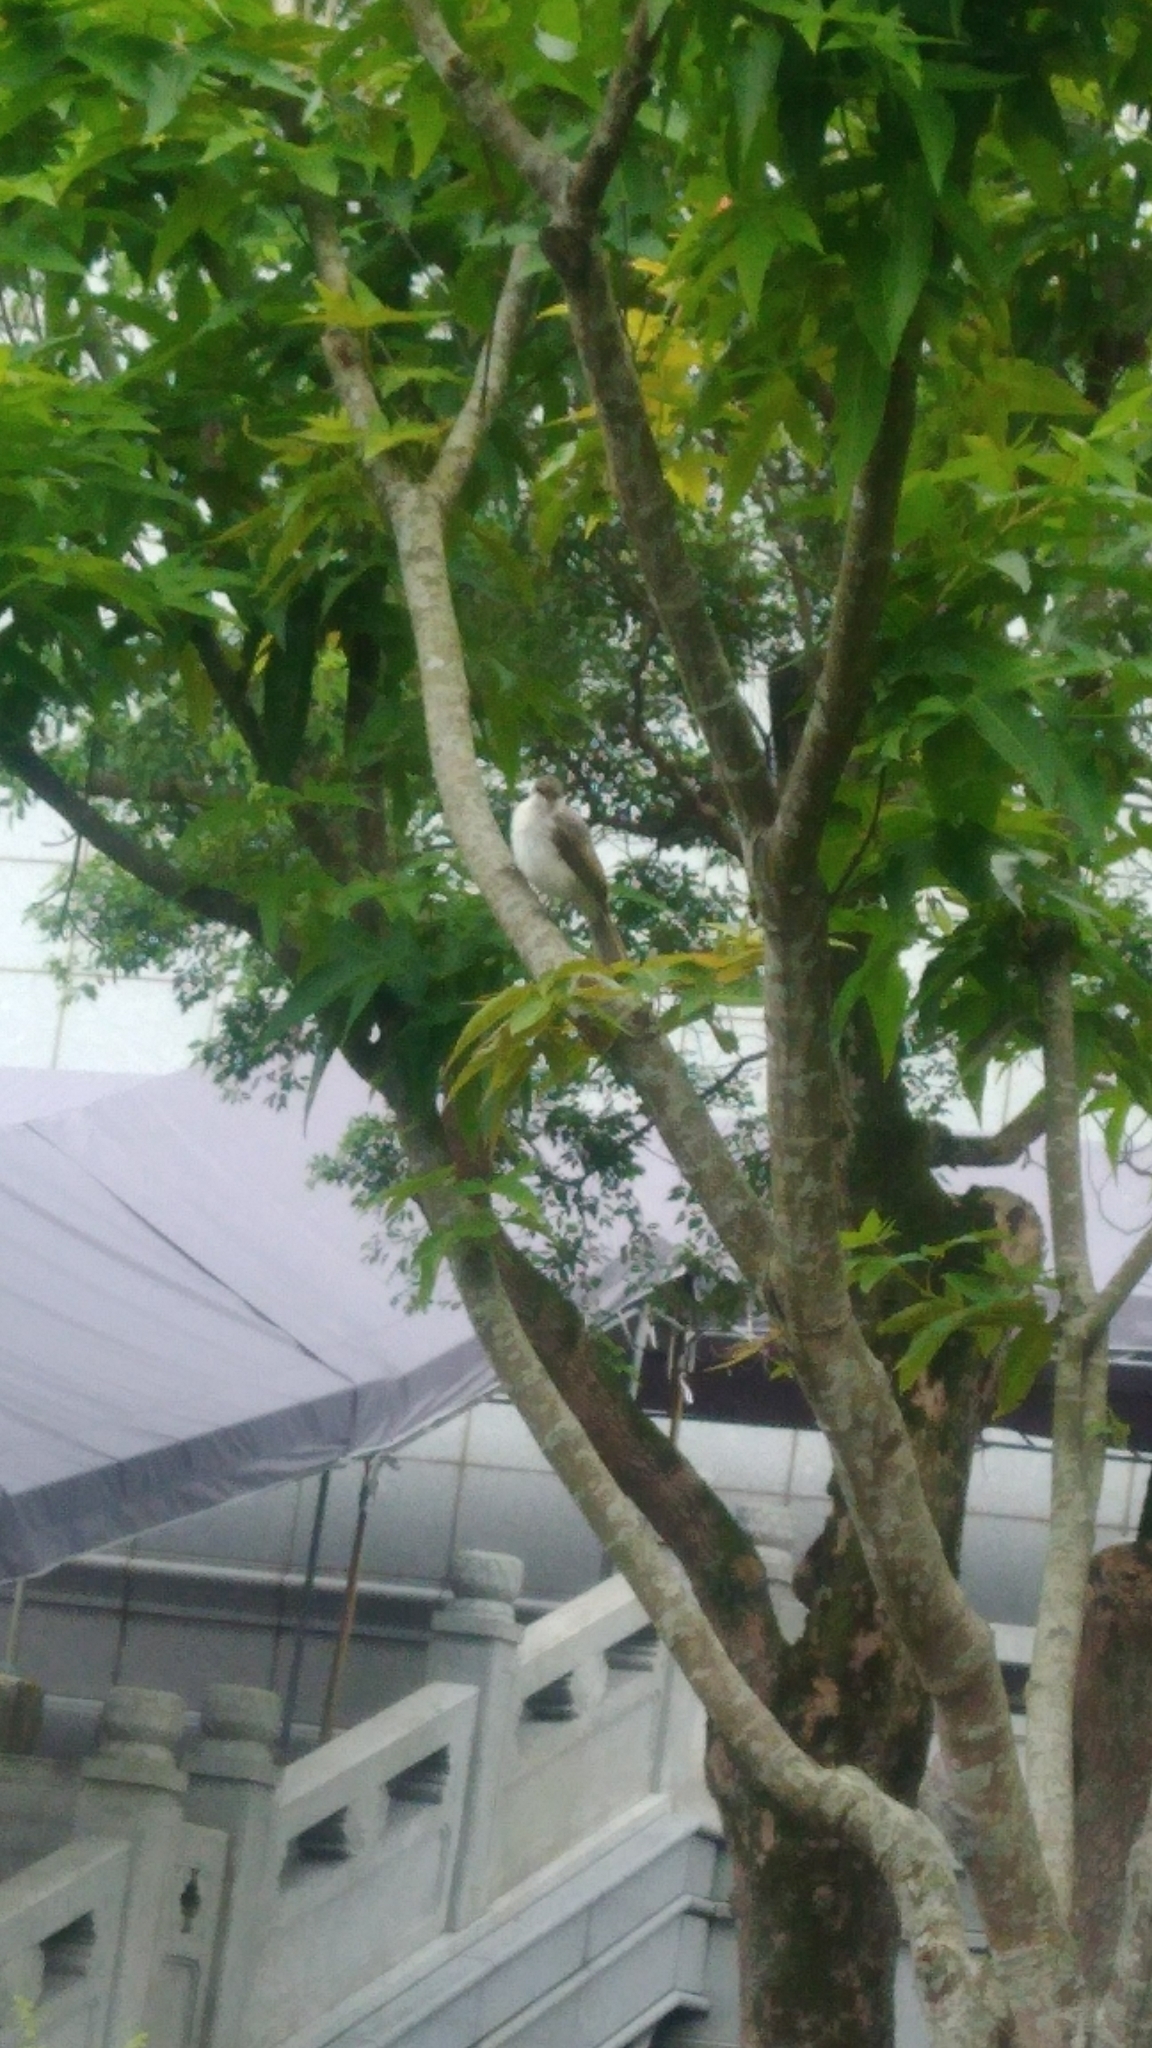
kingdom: Animalia
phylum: Chordata
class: Aves
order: Passeriformes
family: Pycnonotidae
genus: Pycnonotus
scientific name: Pycnonotus taivanus
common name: Styan's bulbul
